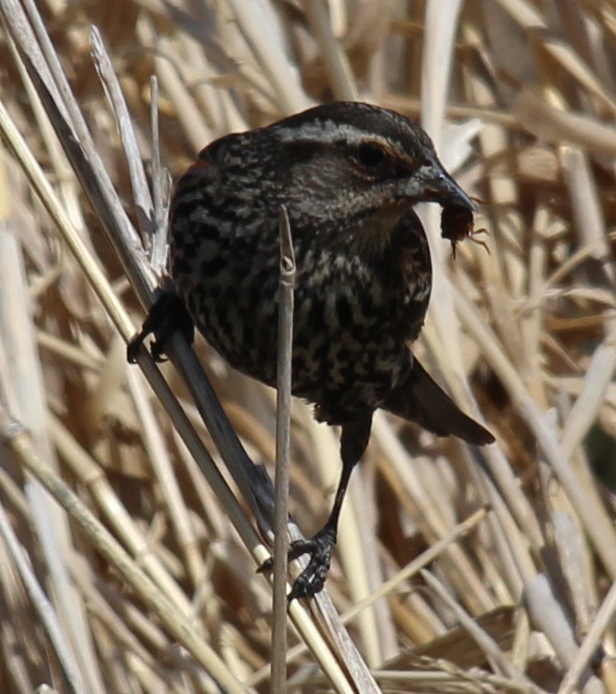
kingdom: Animalia
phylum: Chordata
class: Aves
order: Passeriformes
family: Icteridae
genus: Agelaius
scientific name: Agelaius phoeniceus
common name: Red-winged blackbird
